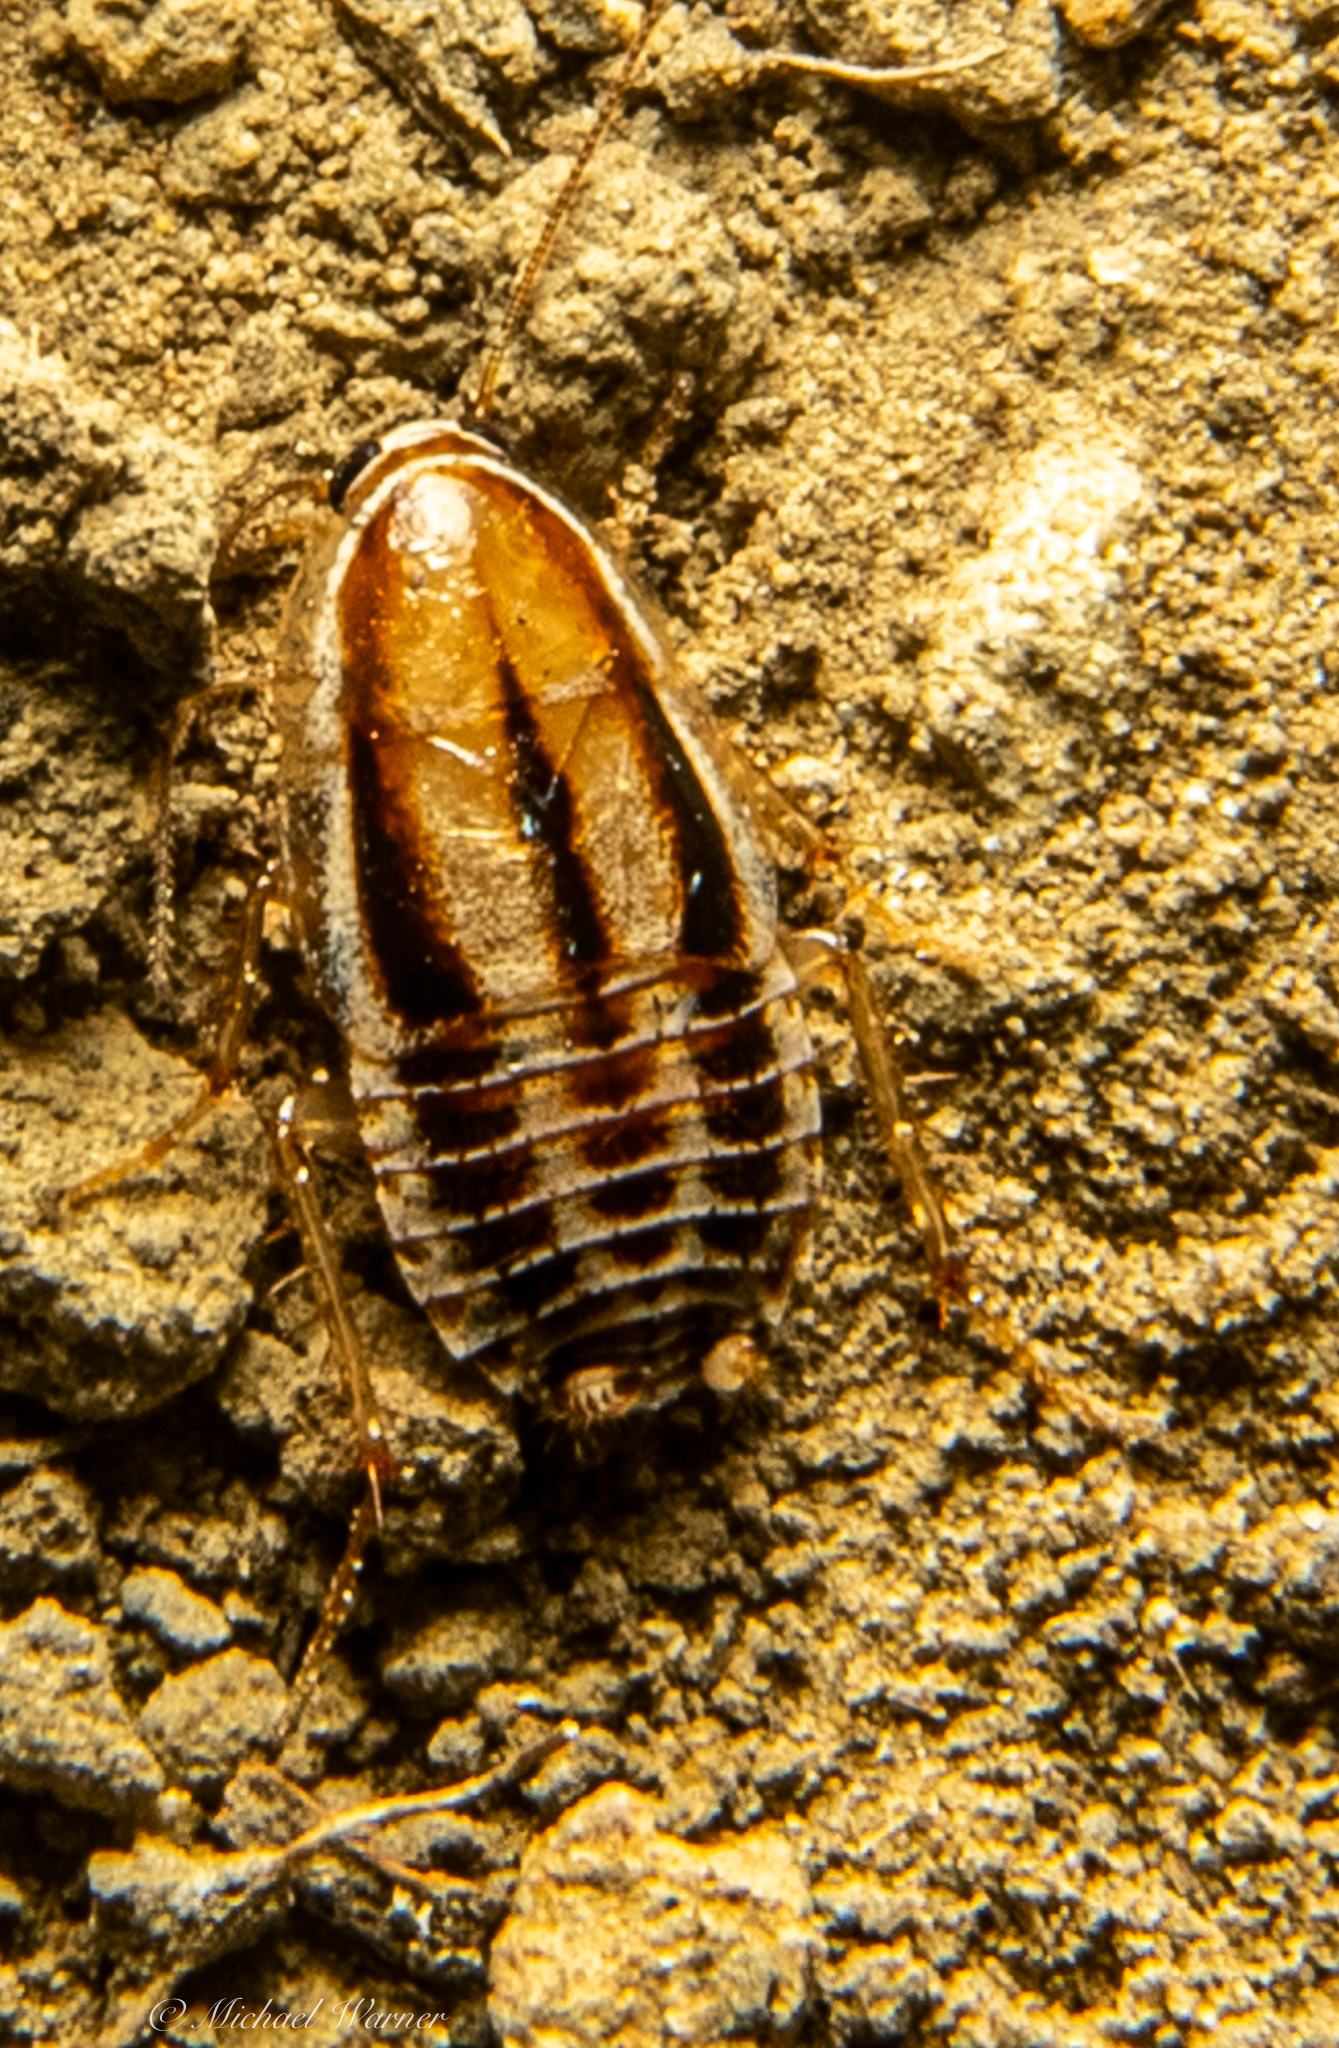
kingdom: Animalia
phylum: Arthropoda
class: Insecta
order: Blattodea
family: Ectobiidae
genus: Luridiblatta
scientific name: Luridiblatta trivittata
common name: Three-lined cockroach
